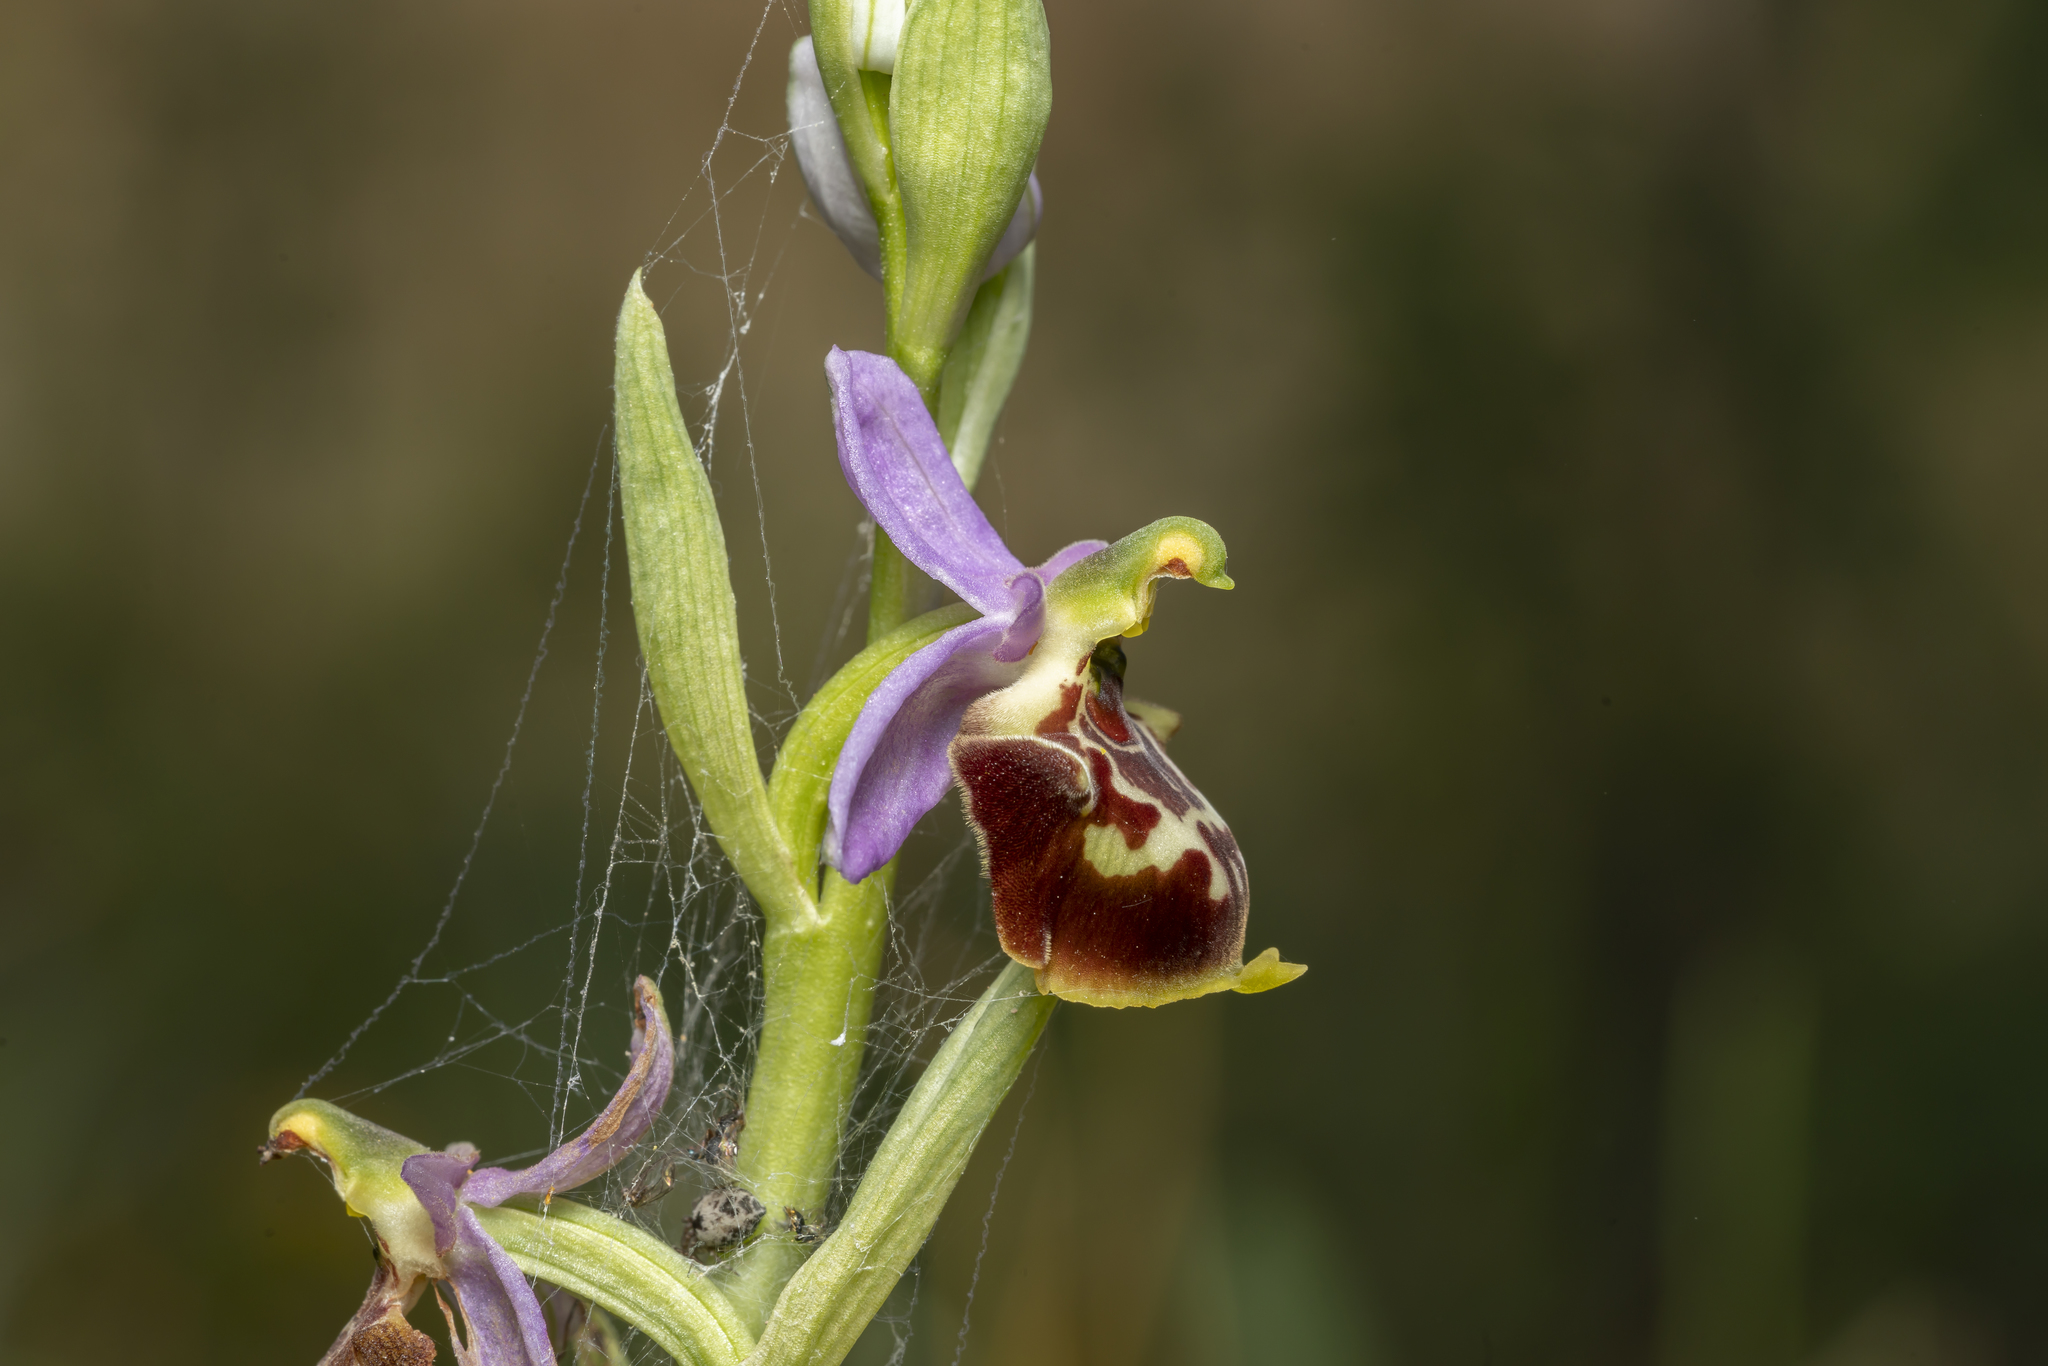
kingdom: Plantae
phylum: Tracheophyta
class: Liliopsida
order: Asparagales
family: Orchidaceae
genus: Ophrys
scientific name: Ophrys holosericea
